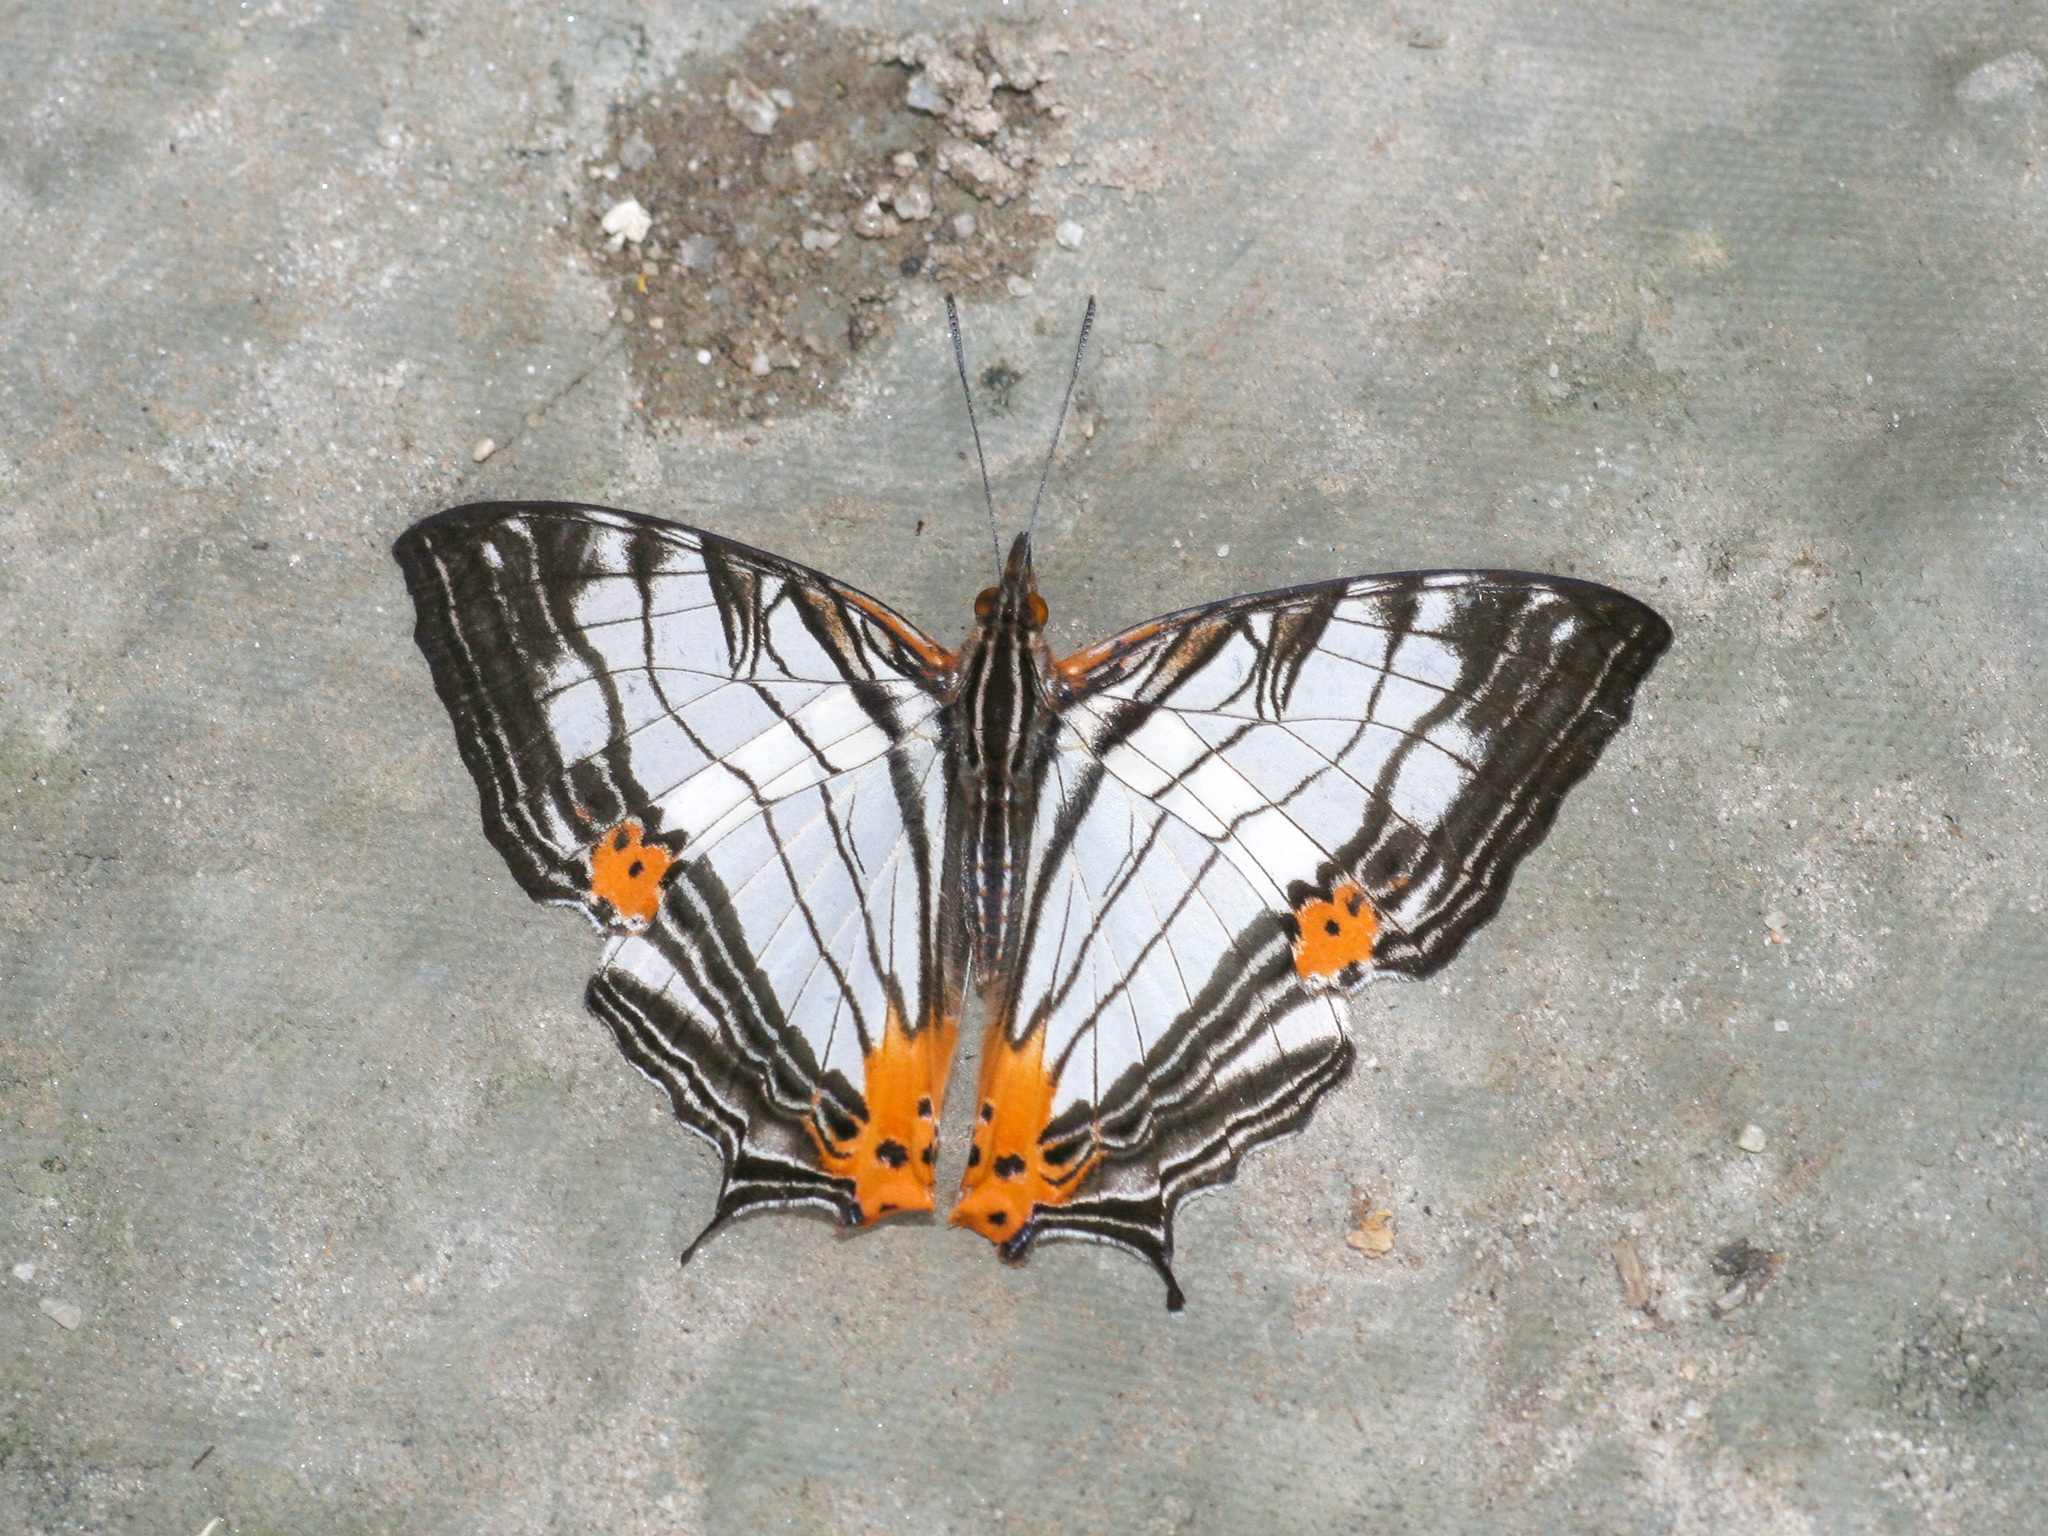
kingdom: Animalia
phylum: Arthropoda
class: Insecta
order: Lepidoptera
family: Nymphalidae
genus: Cyrestis
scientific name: Cyrestis maenalis
